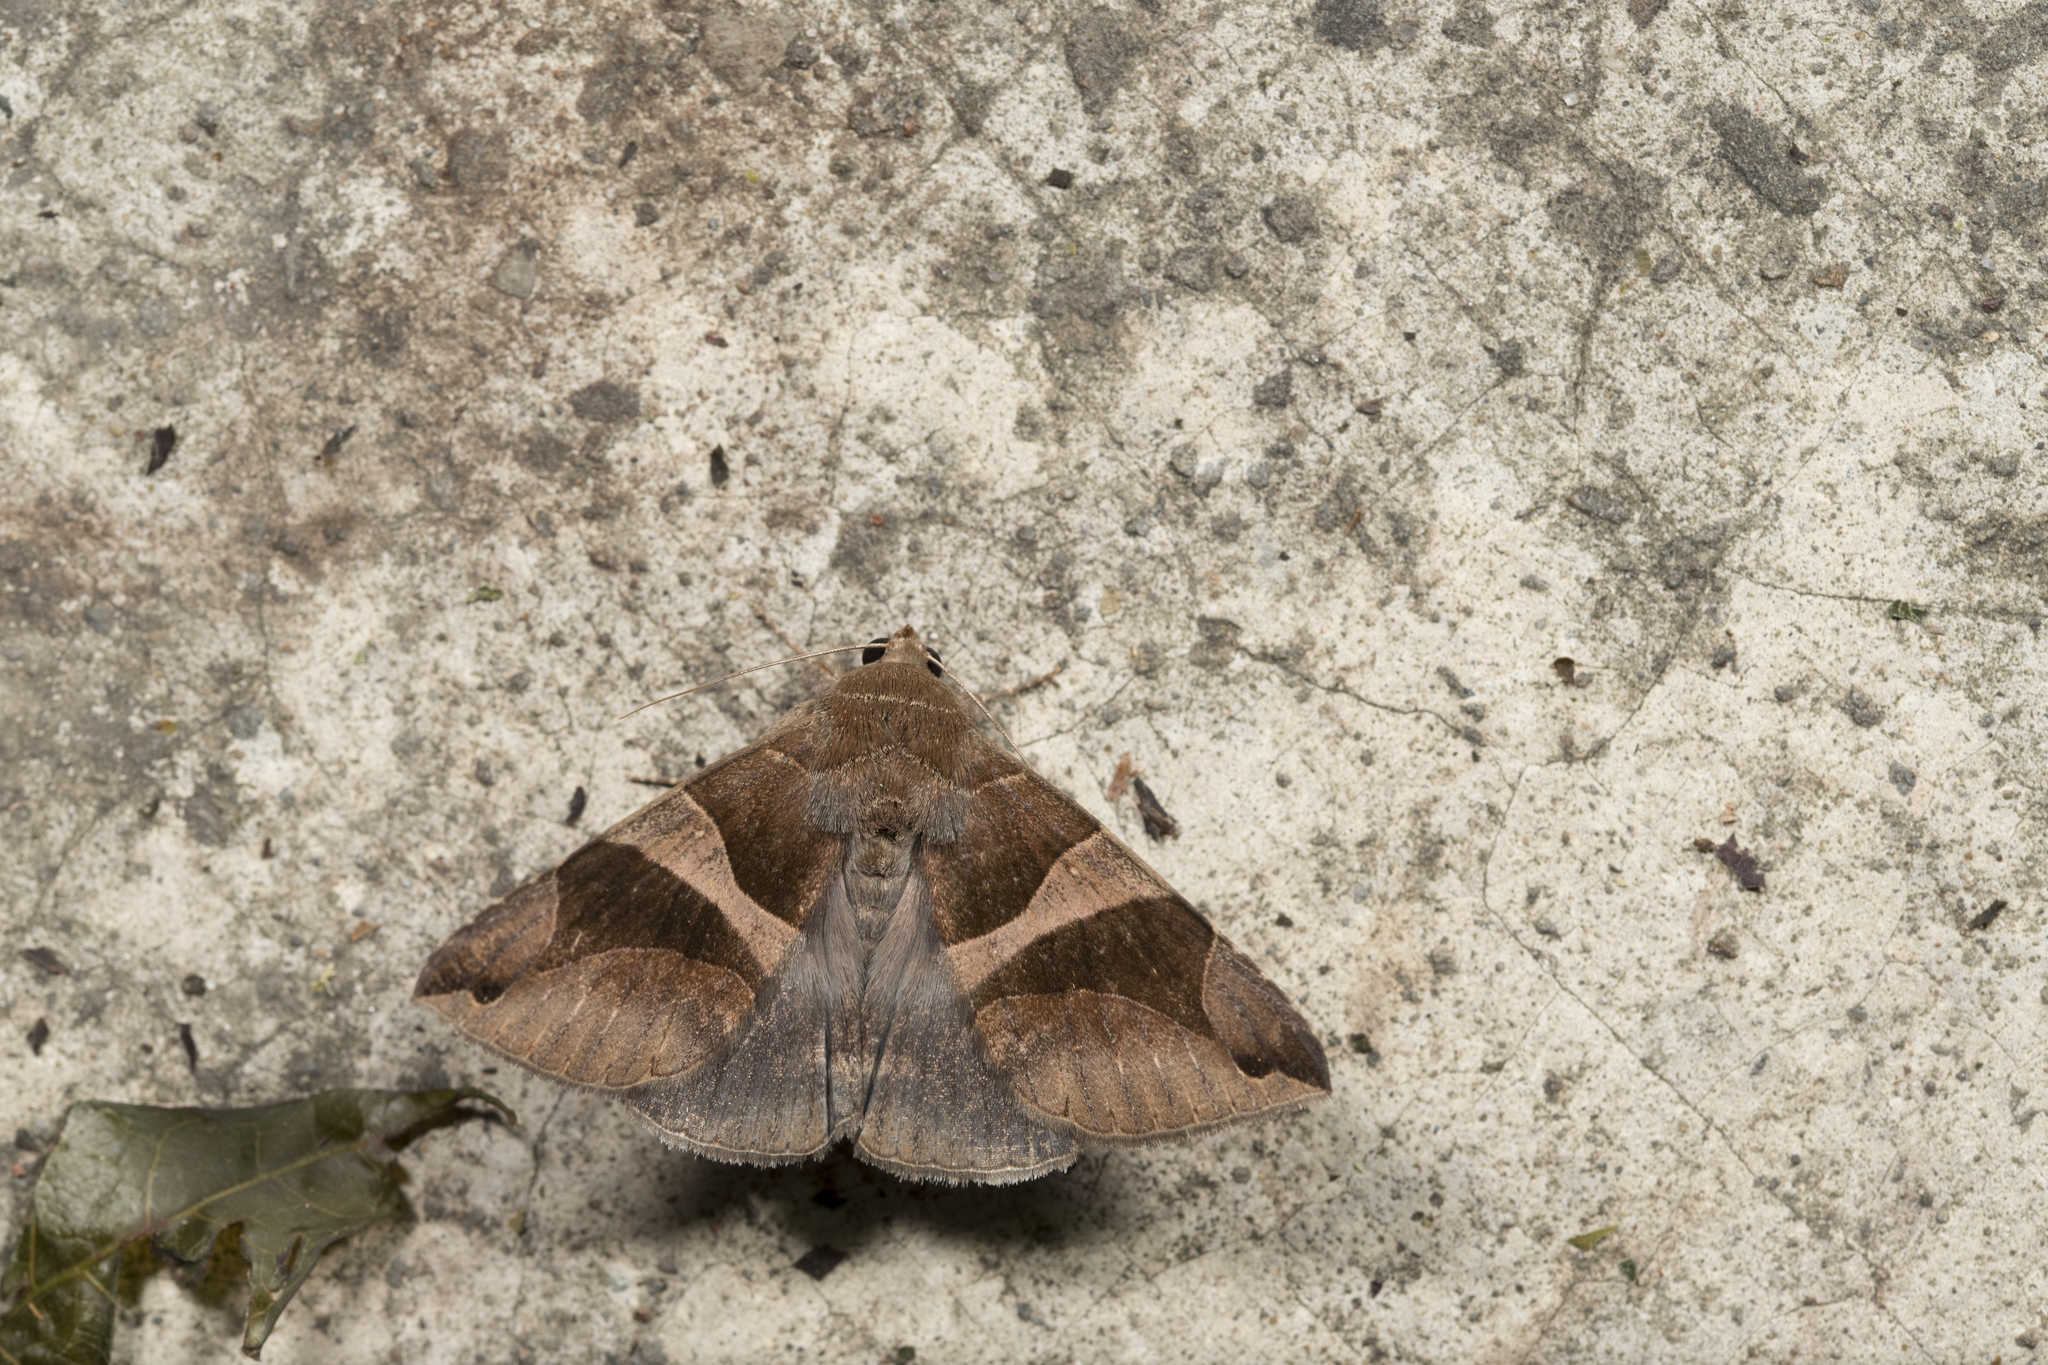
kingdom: Animalia
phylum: Arthropoda
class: Insecta
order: Lepidoptera
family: Erebidae
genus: Bastilla
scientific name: Bastilla arcuata
